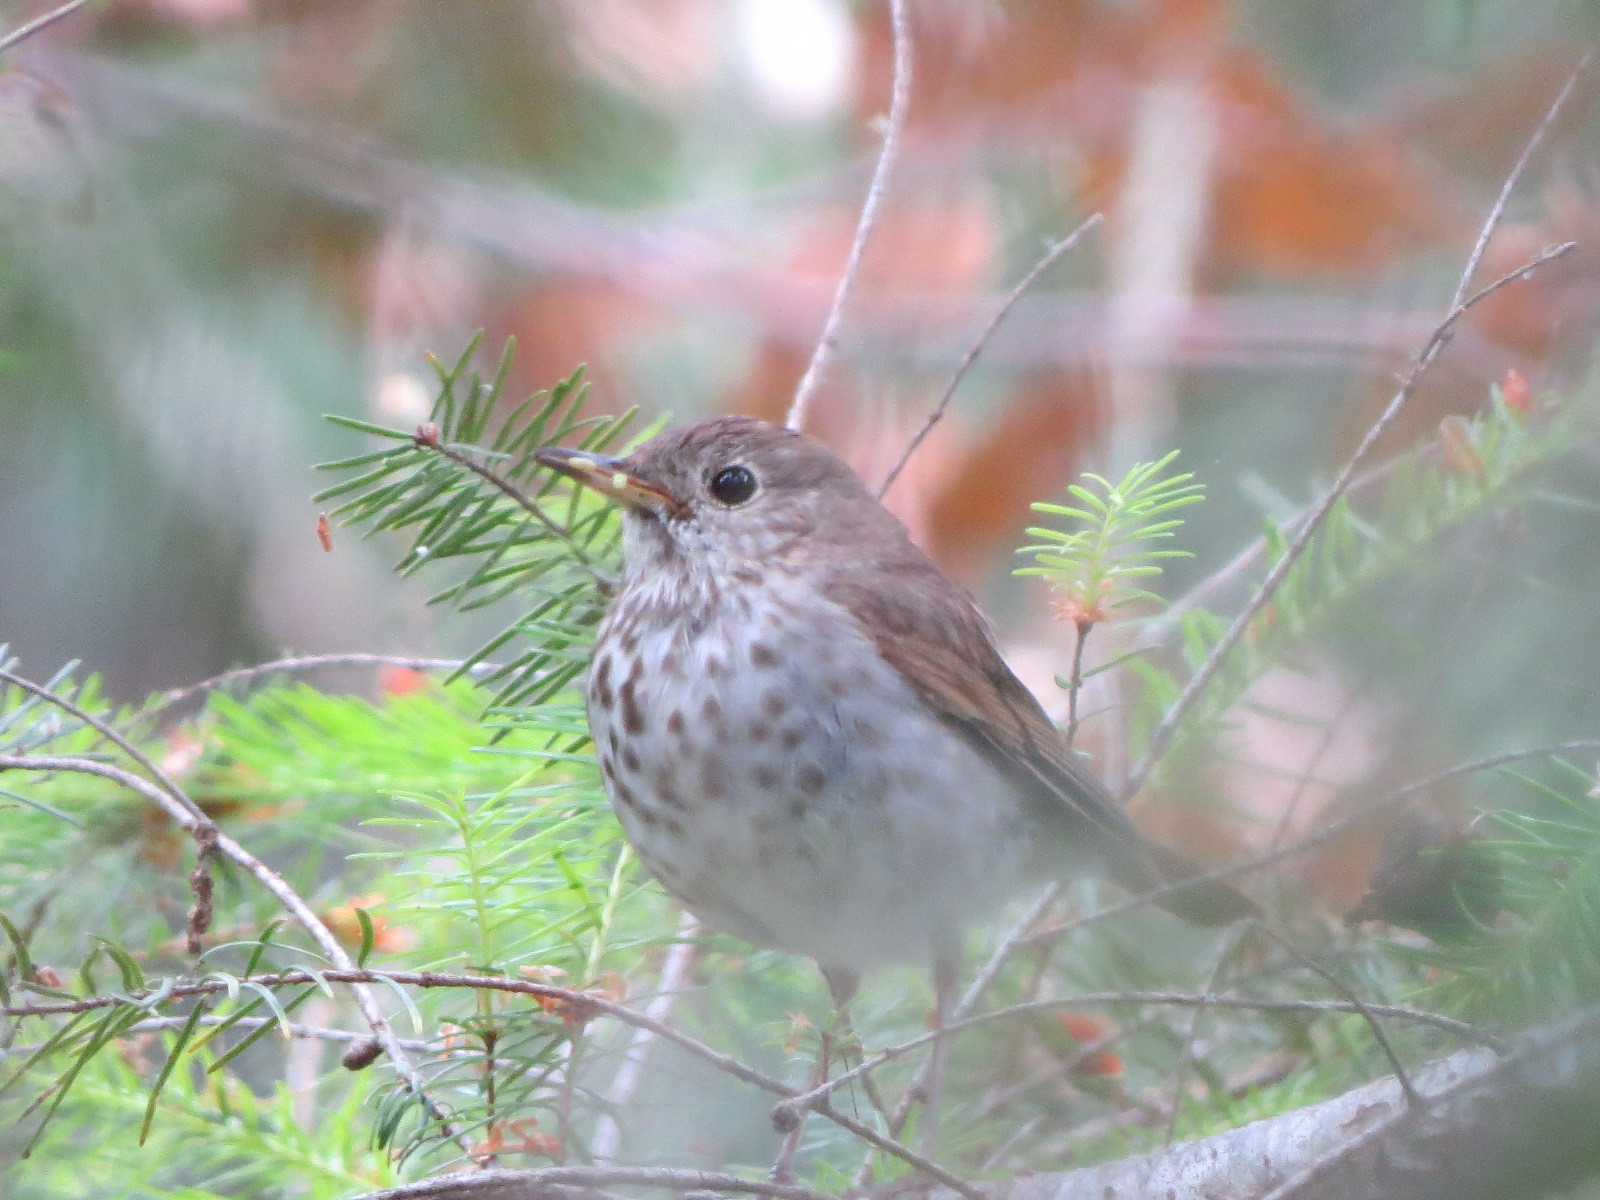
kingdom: Animalia
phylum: Chordata
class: Aves
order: Passeriformes
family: Turdidae
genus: Catharus
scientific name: Catharus guttatus
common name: Hermit thrush
